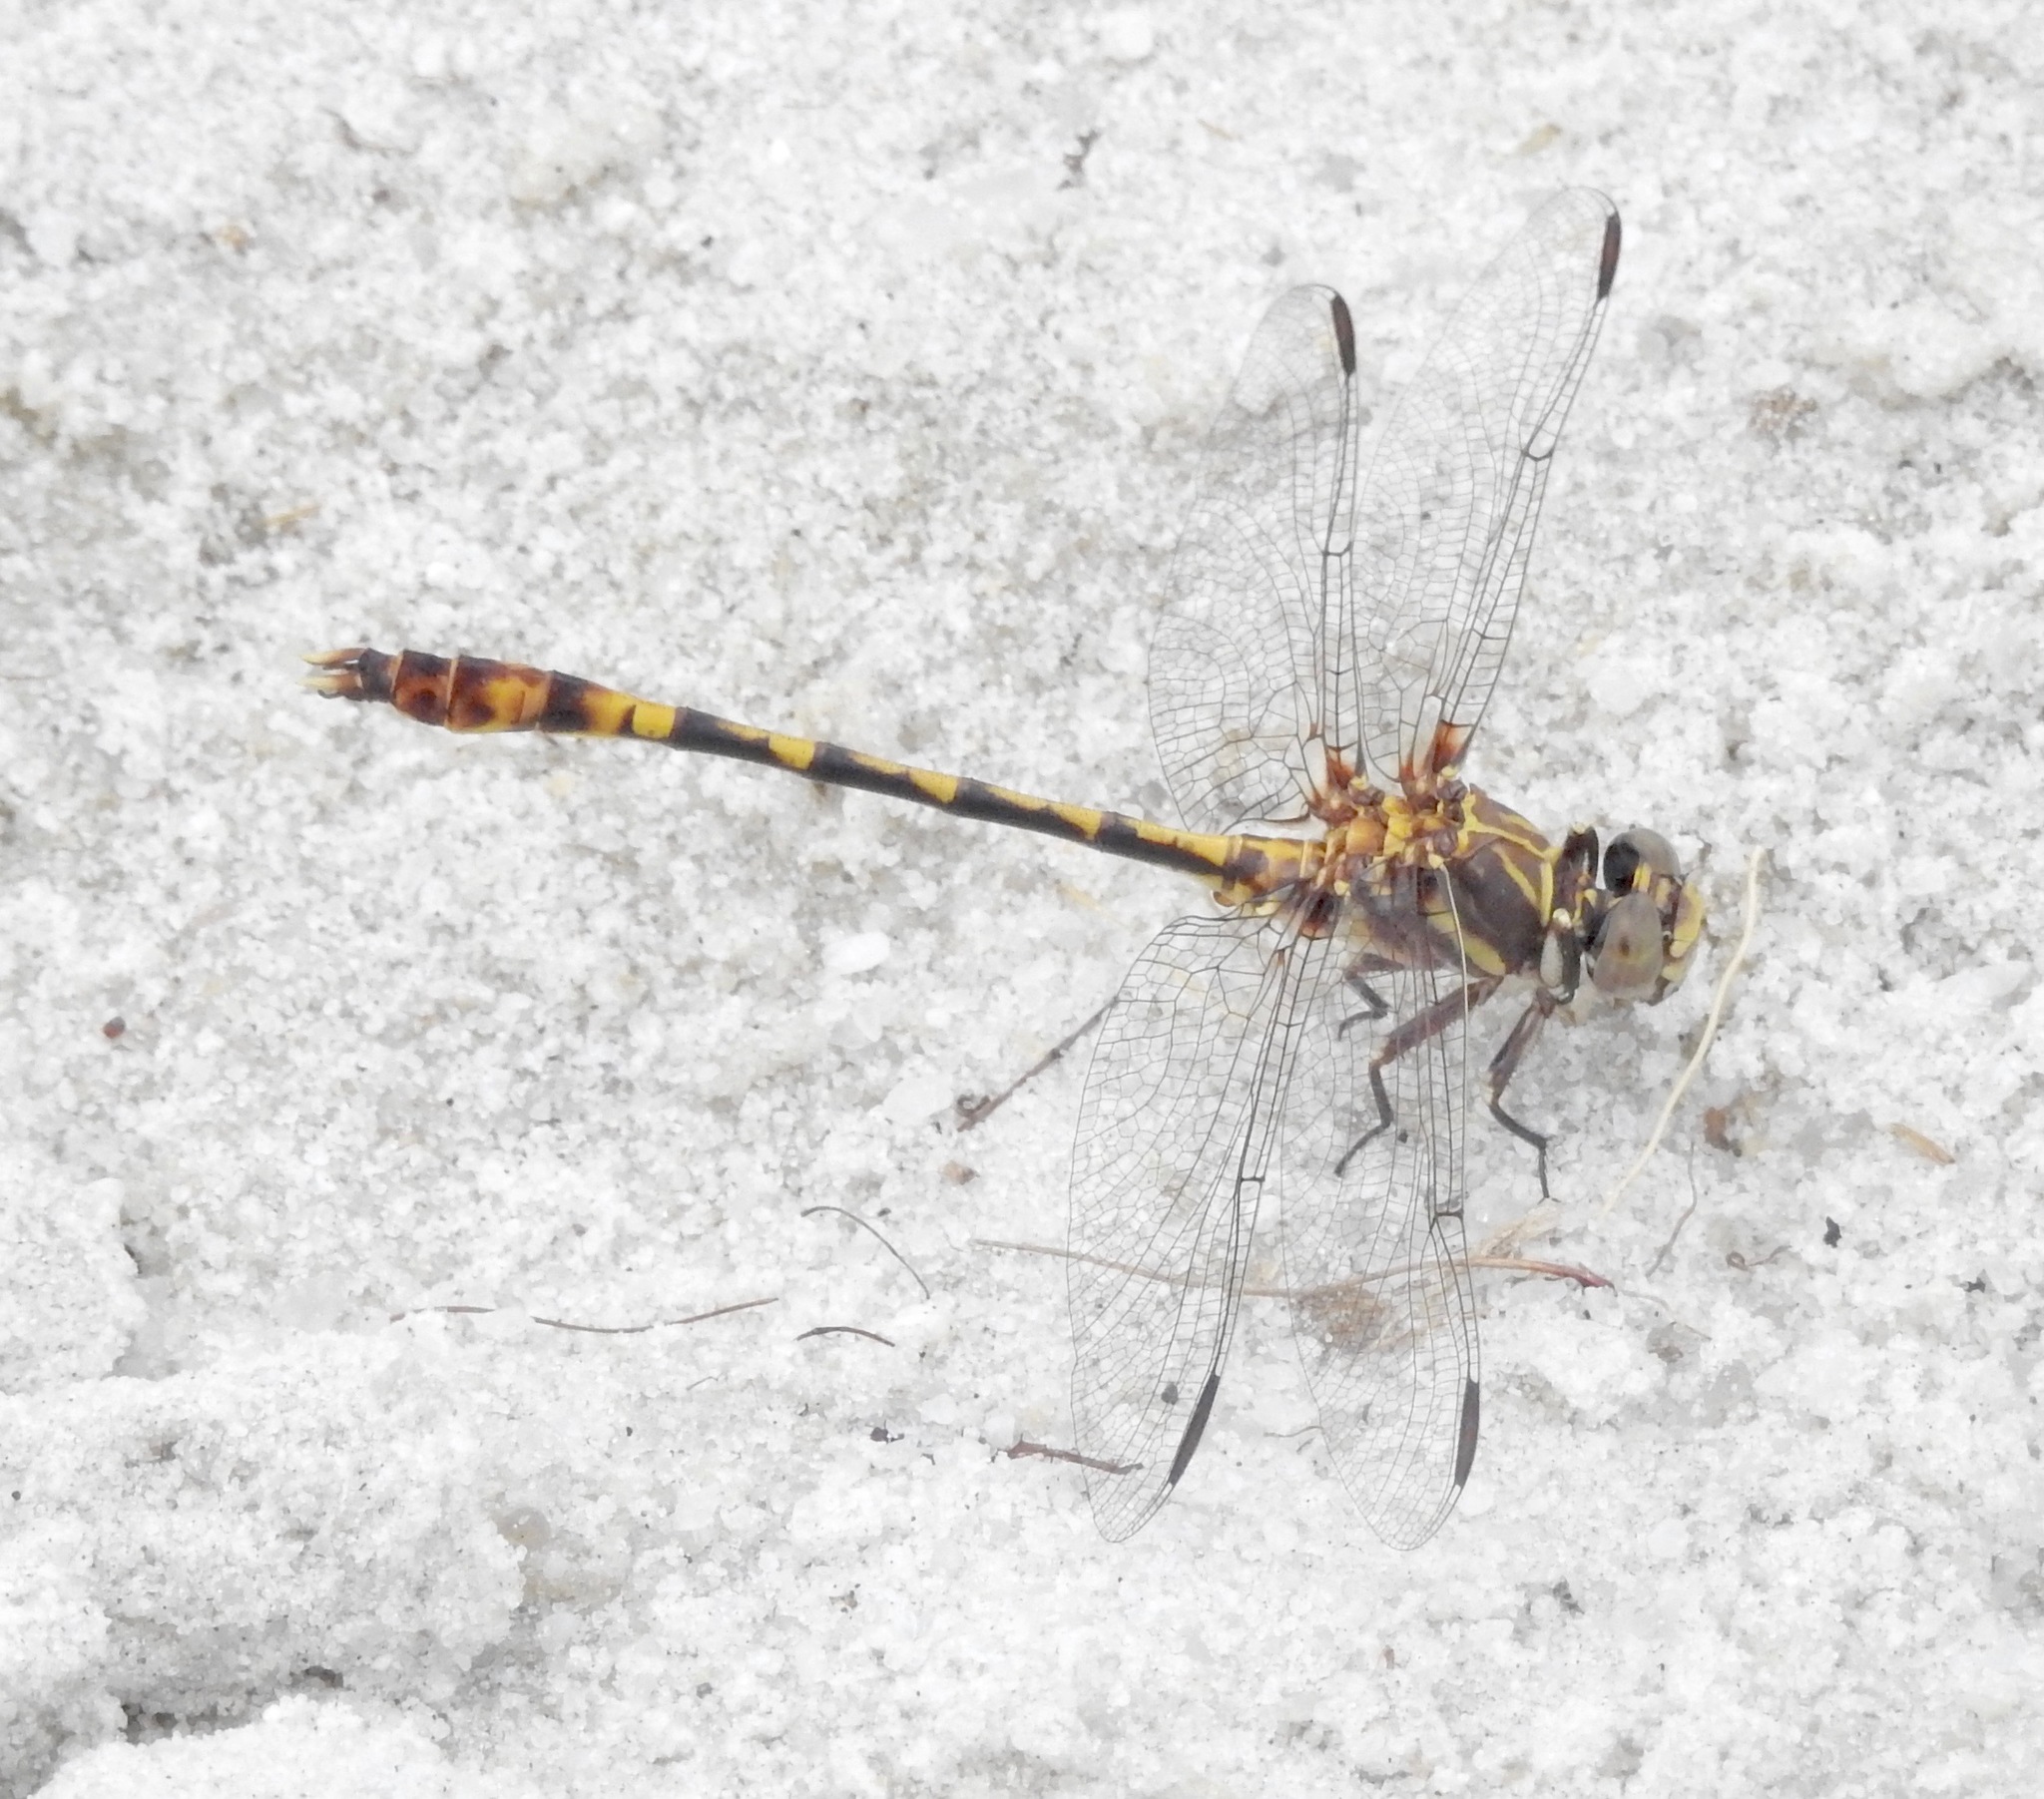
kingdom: Animalia
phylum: Arthropoda
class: Insecta
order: Odonata
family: Gomphidae
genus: Progomphus
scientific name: Progomphus alachuensis
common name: Tawny sanddragon
